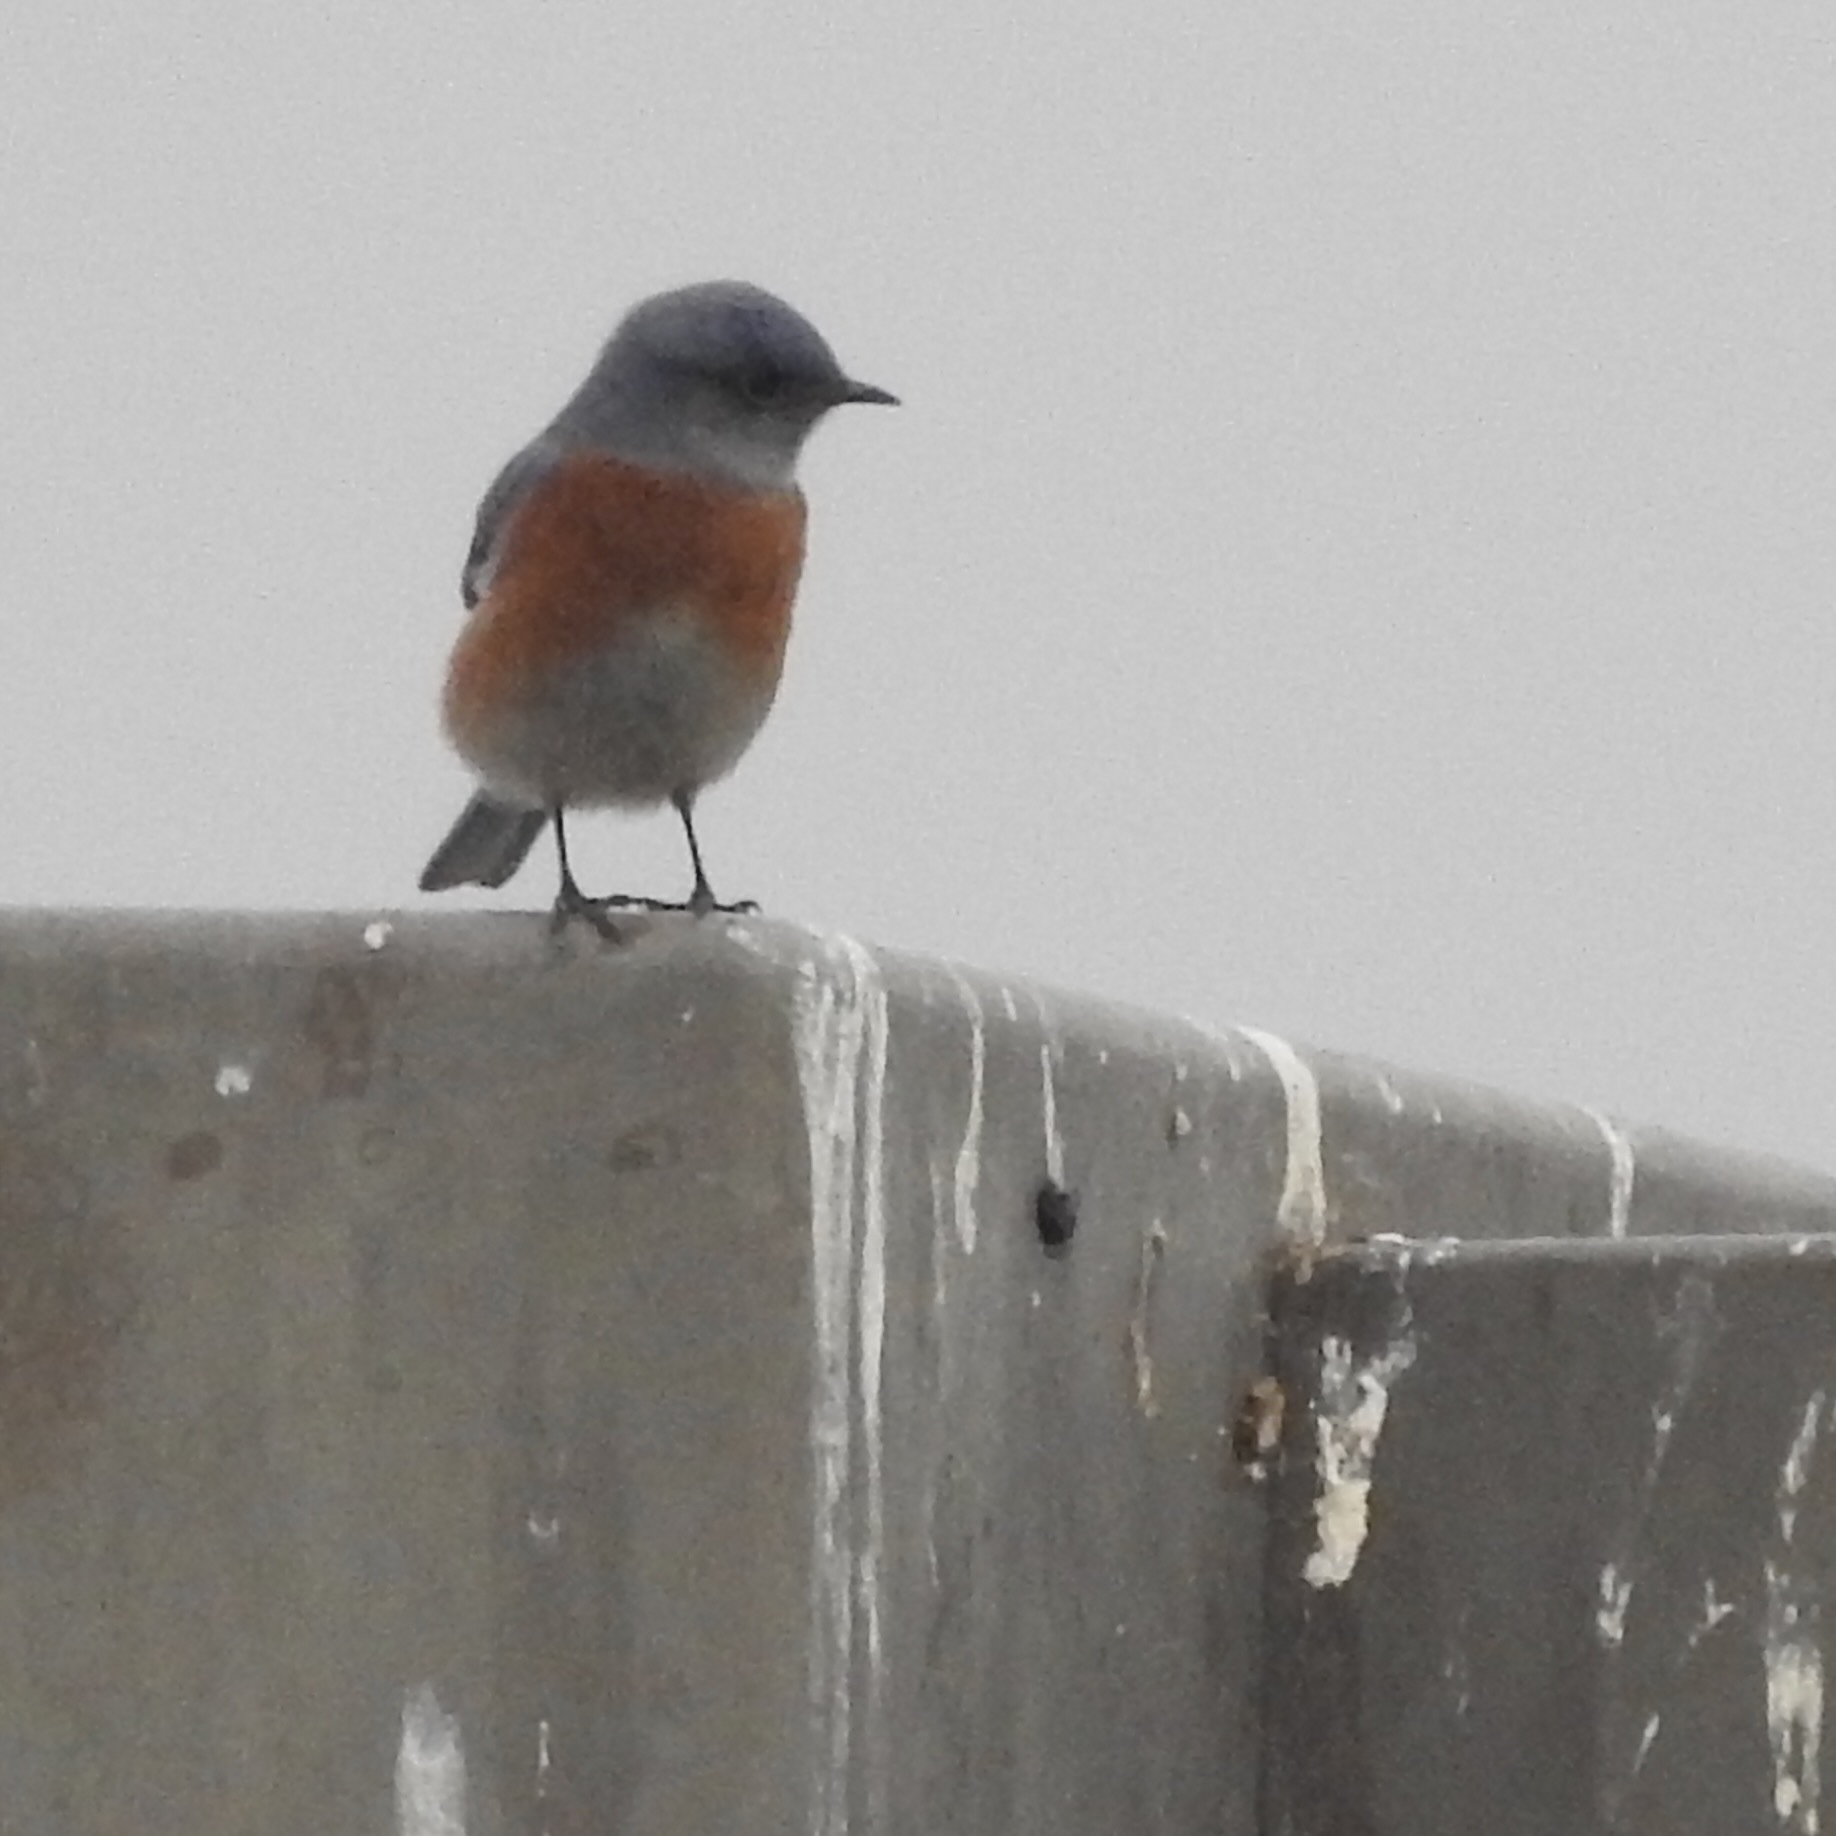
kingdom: Animalia
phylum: Chordata
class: Aves
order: Passeriformes
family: Turdidae
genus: Sialia
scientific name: Sialia mexicana
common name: Western bluebird
